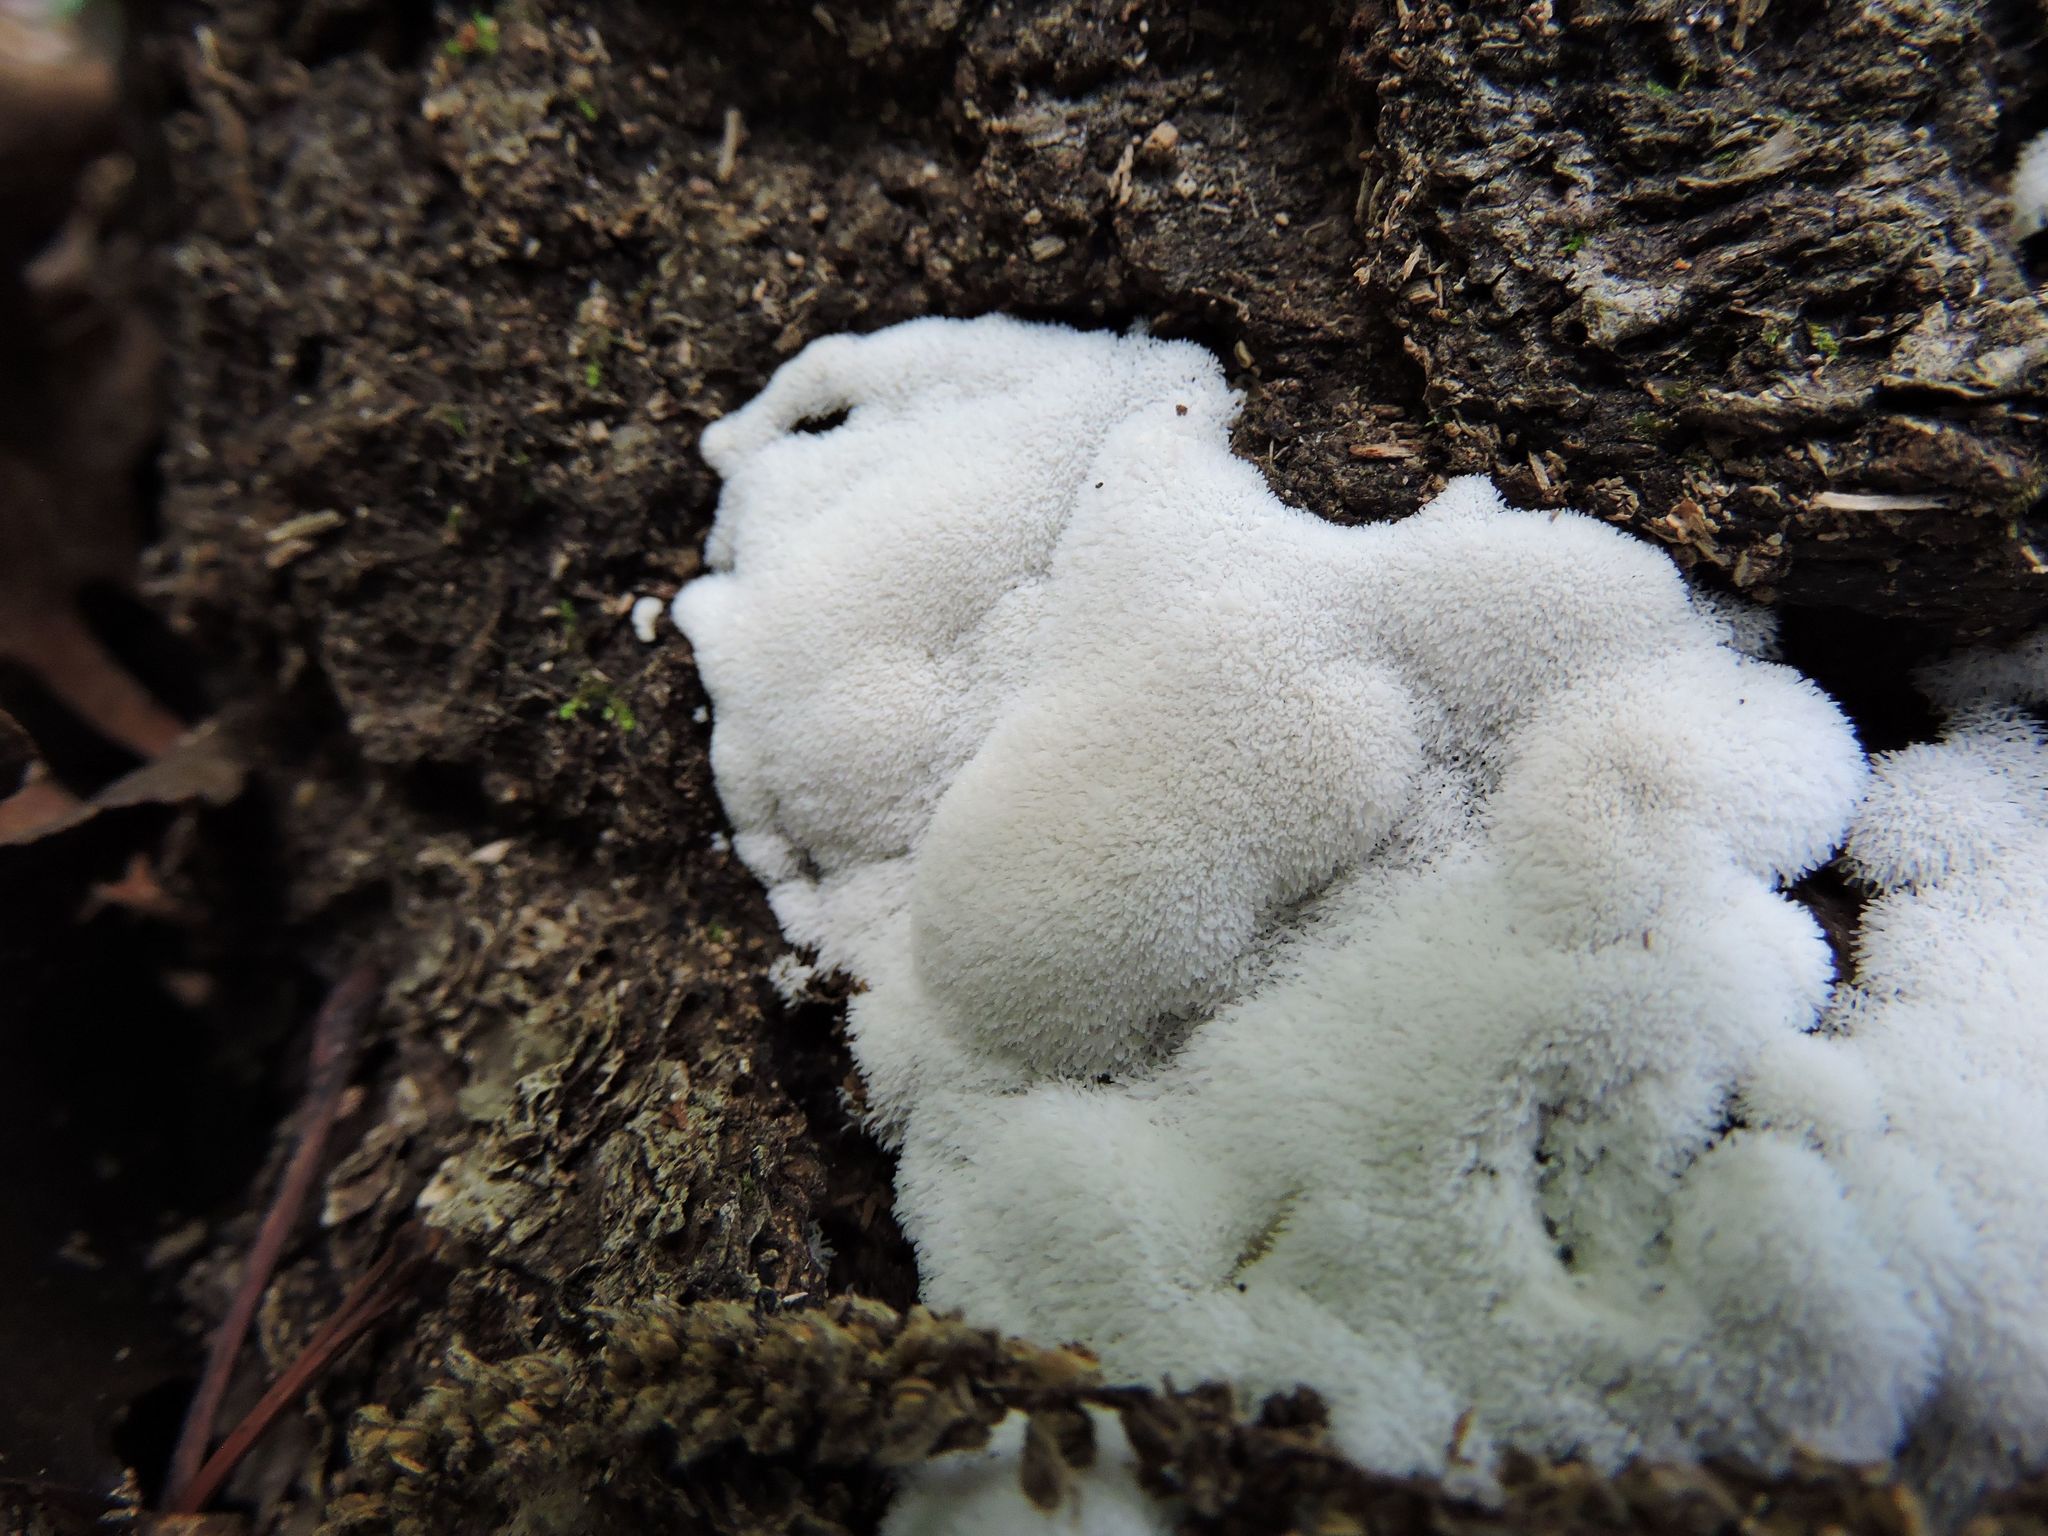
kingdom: Protozoa
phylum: Mycetozoa
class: Protosteliomycetes
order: Ceratiomyxales
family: Ceratiomyxaceae
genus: Ceratiomyxa
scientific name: Ceratiomyxa fruticulosa
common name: Honeycomb coral slime mold
